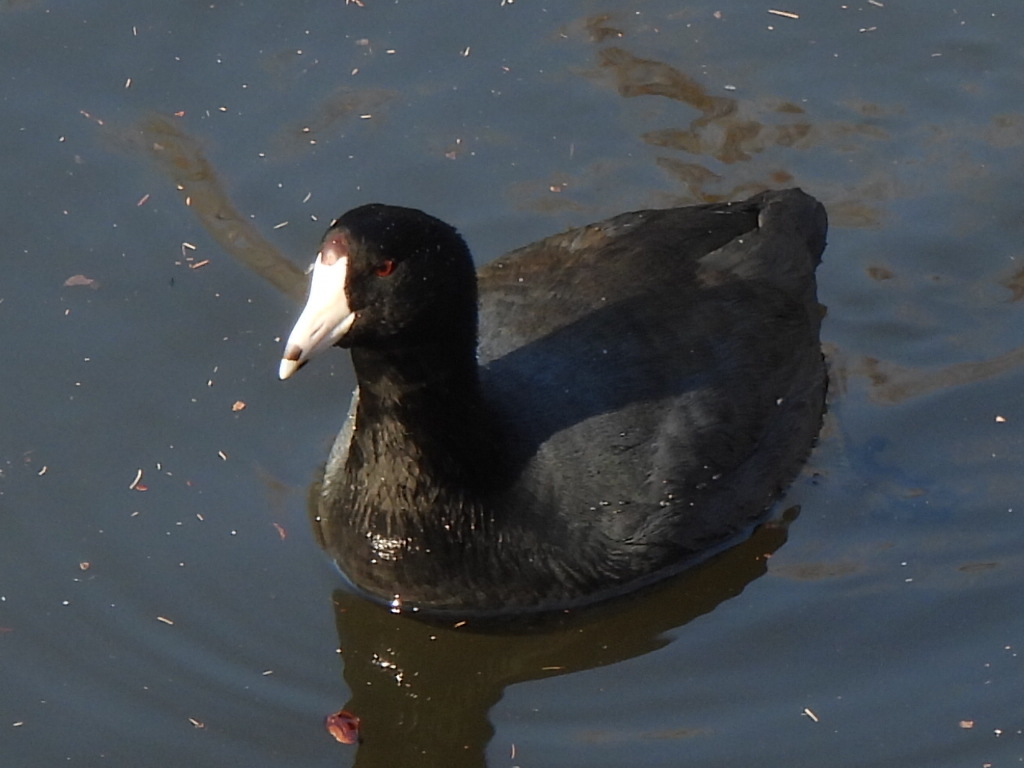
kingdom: Animalia
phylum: Chordata
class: Aves
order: Gruiformes
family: Rallidae
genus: Fulica
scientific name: Fulica americana
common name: American coot
